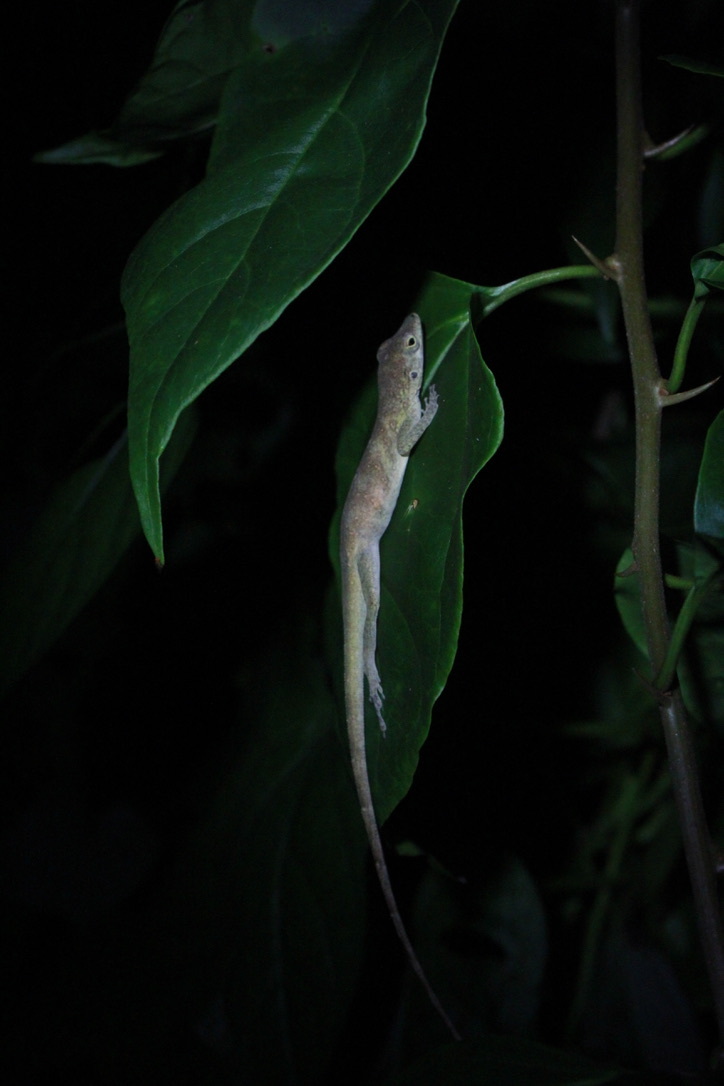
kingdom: Animalia
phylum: Chordata
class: Squamata
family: Dactyloidae
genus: Anolis
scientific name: Anolis aeneus
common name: Bronze anole
